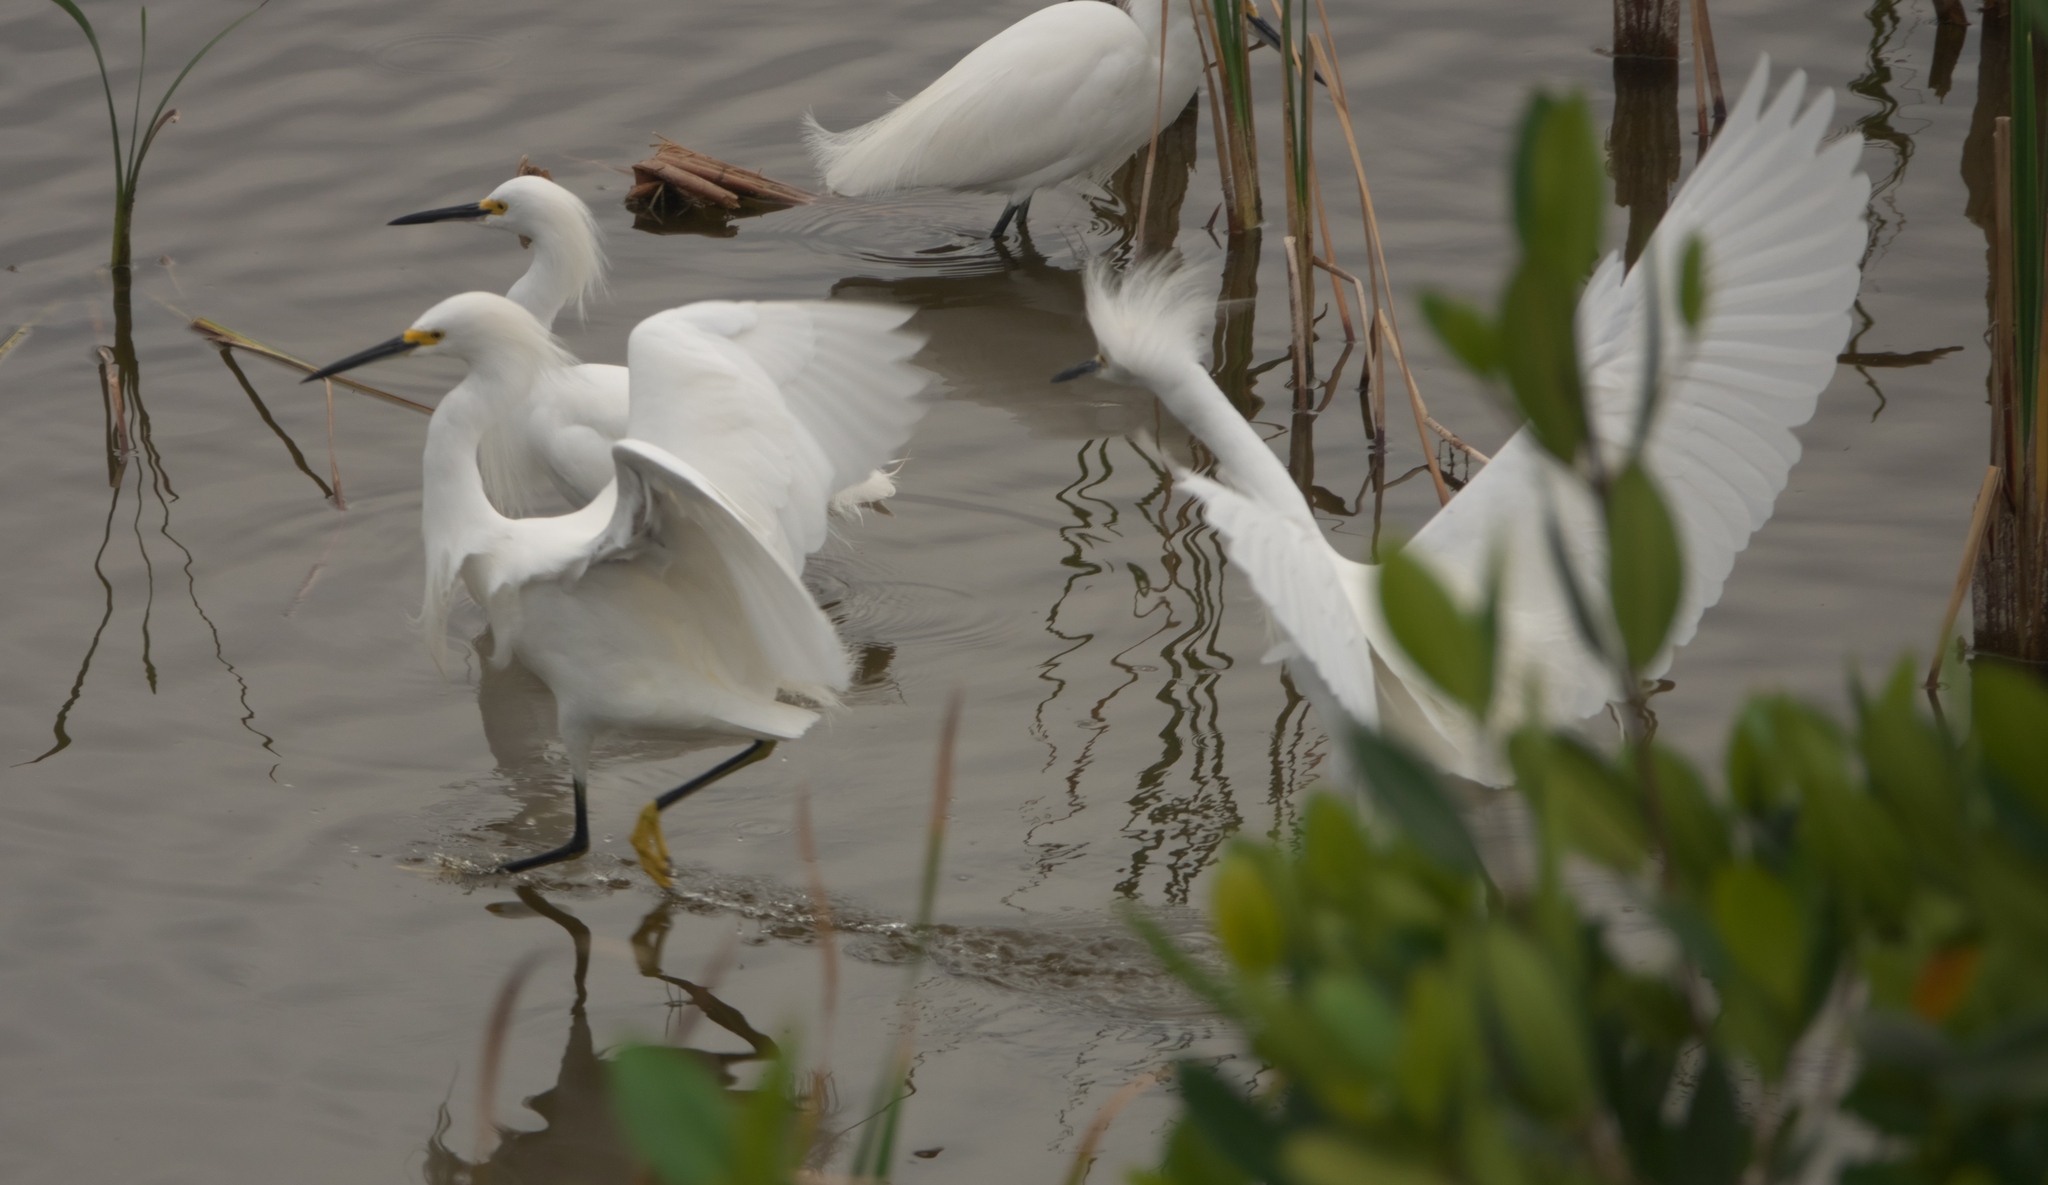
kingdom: Animalia
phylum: Chordata
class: Aves
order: Pelecaniformes
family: Ardeidae
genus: Egretta
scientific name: Egretta thula
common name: Snowy egret
